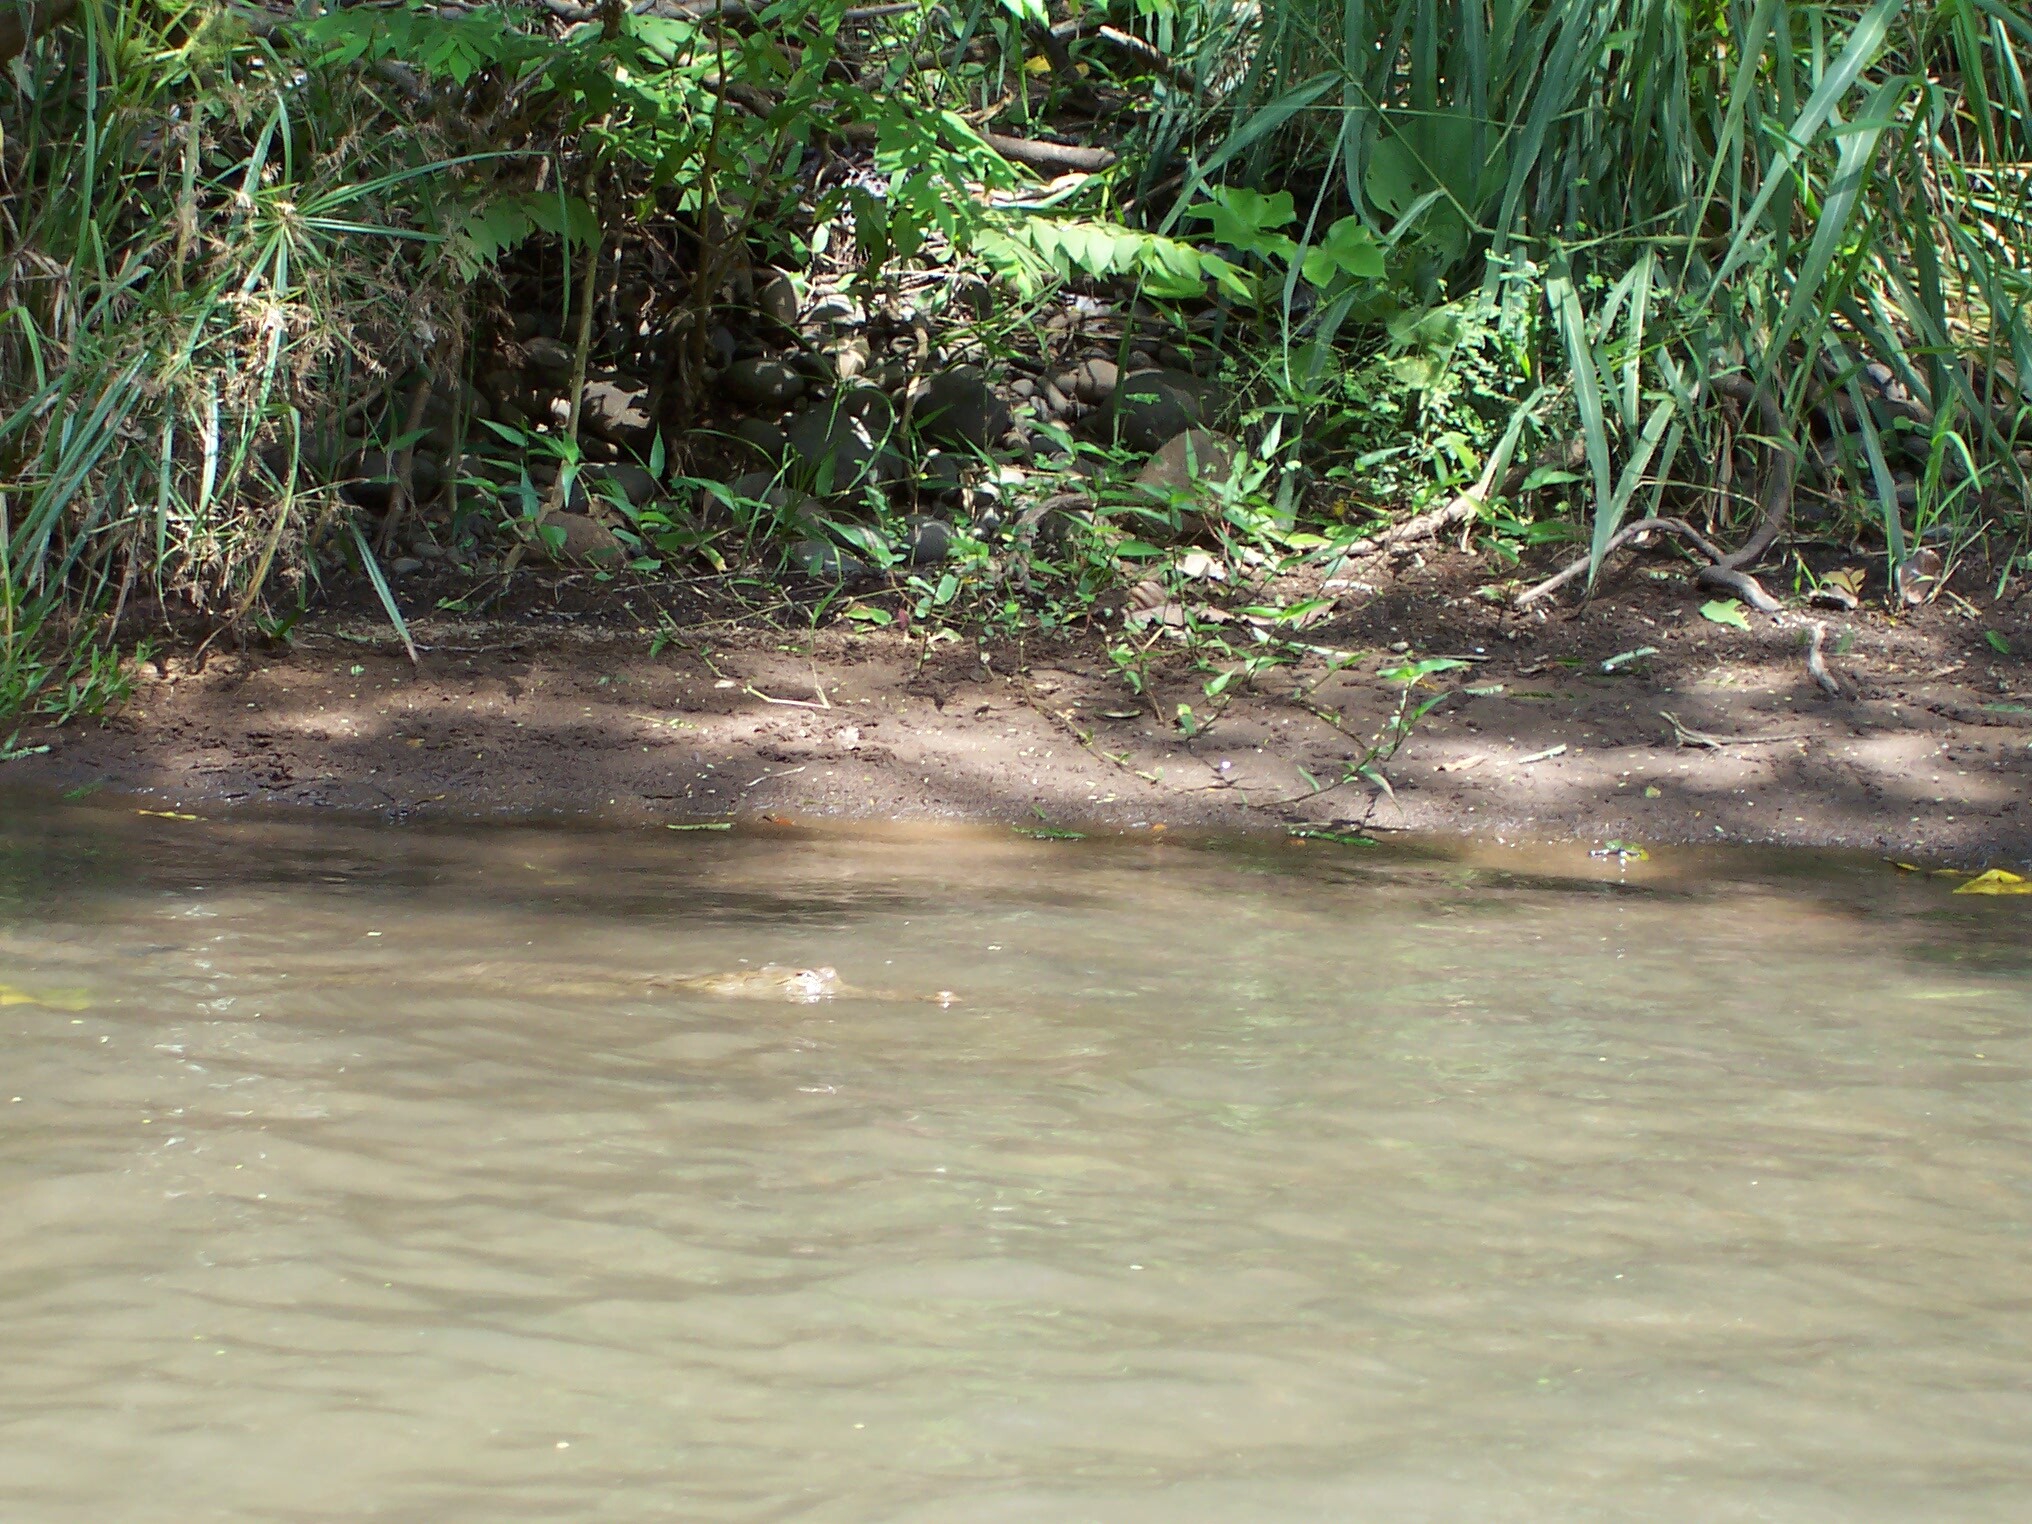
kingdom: Animalia
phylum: Chordata
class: Crocodylia
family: Crocodylidae
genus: Crocodylus
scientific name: Crocodylus acutus
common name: American crocodile
